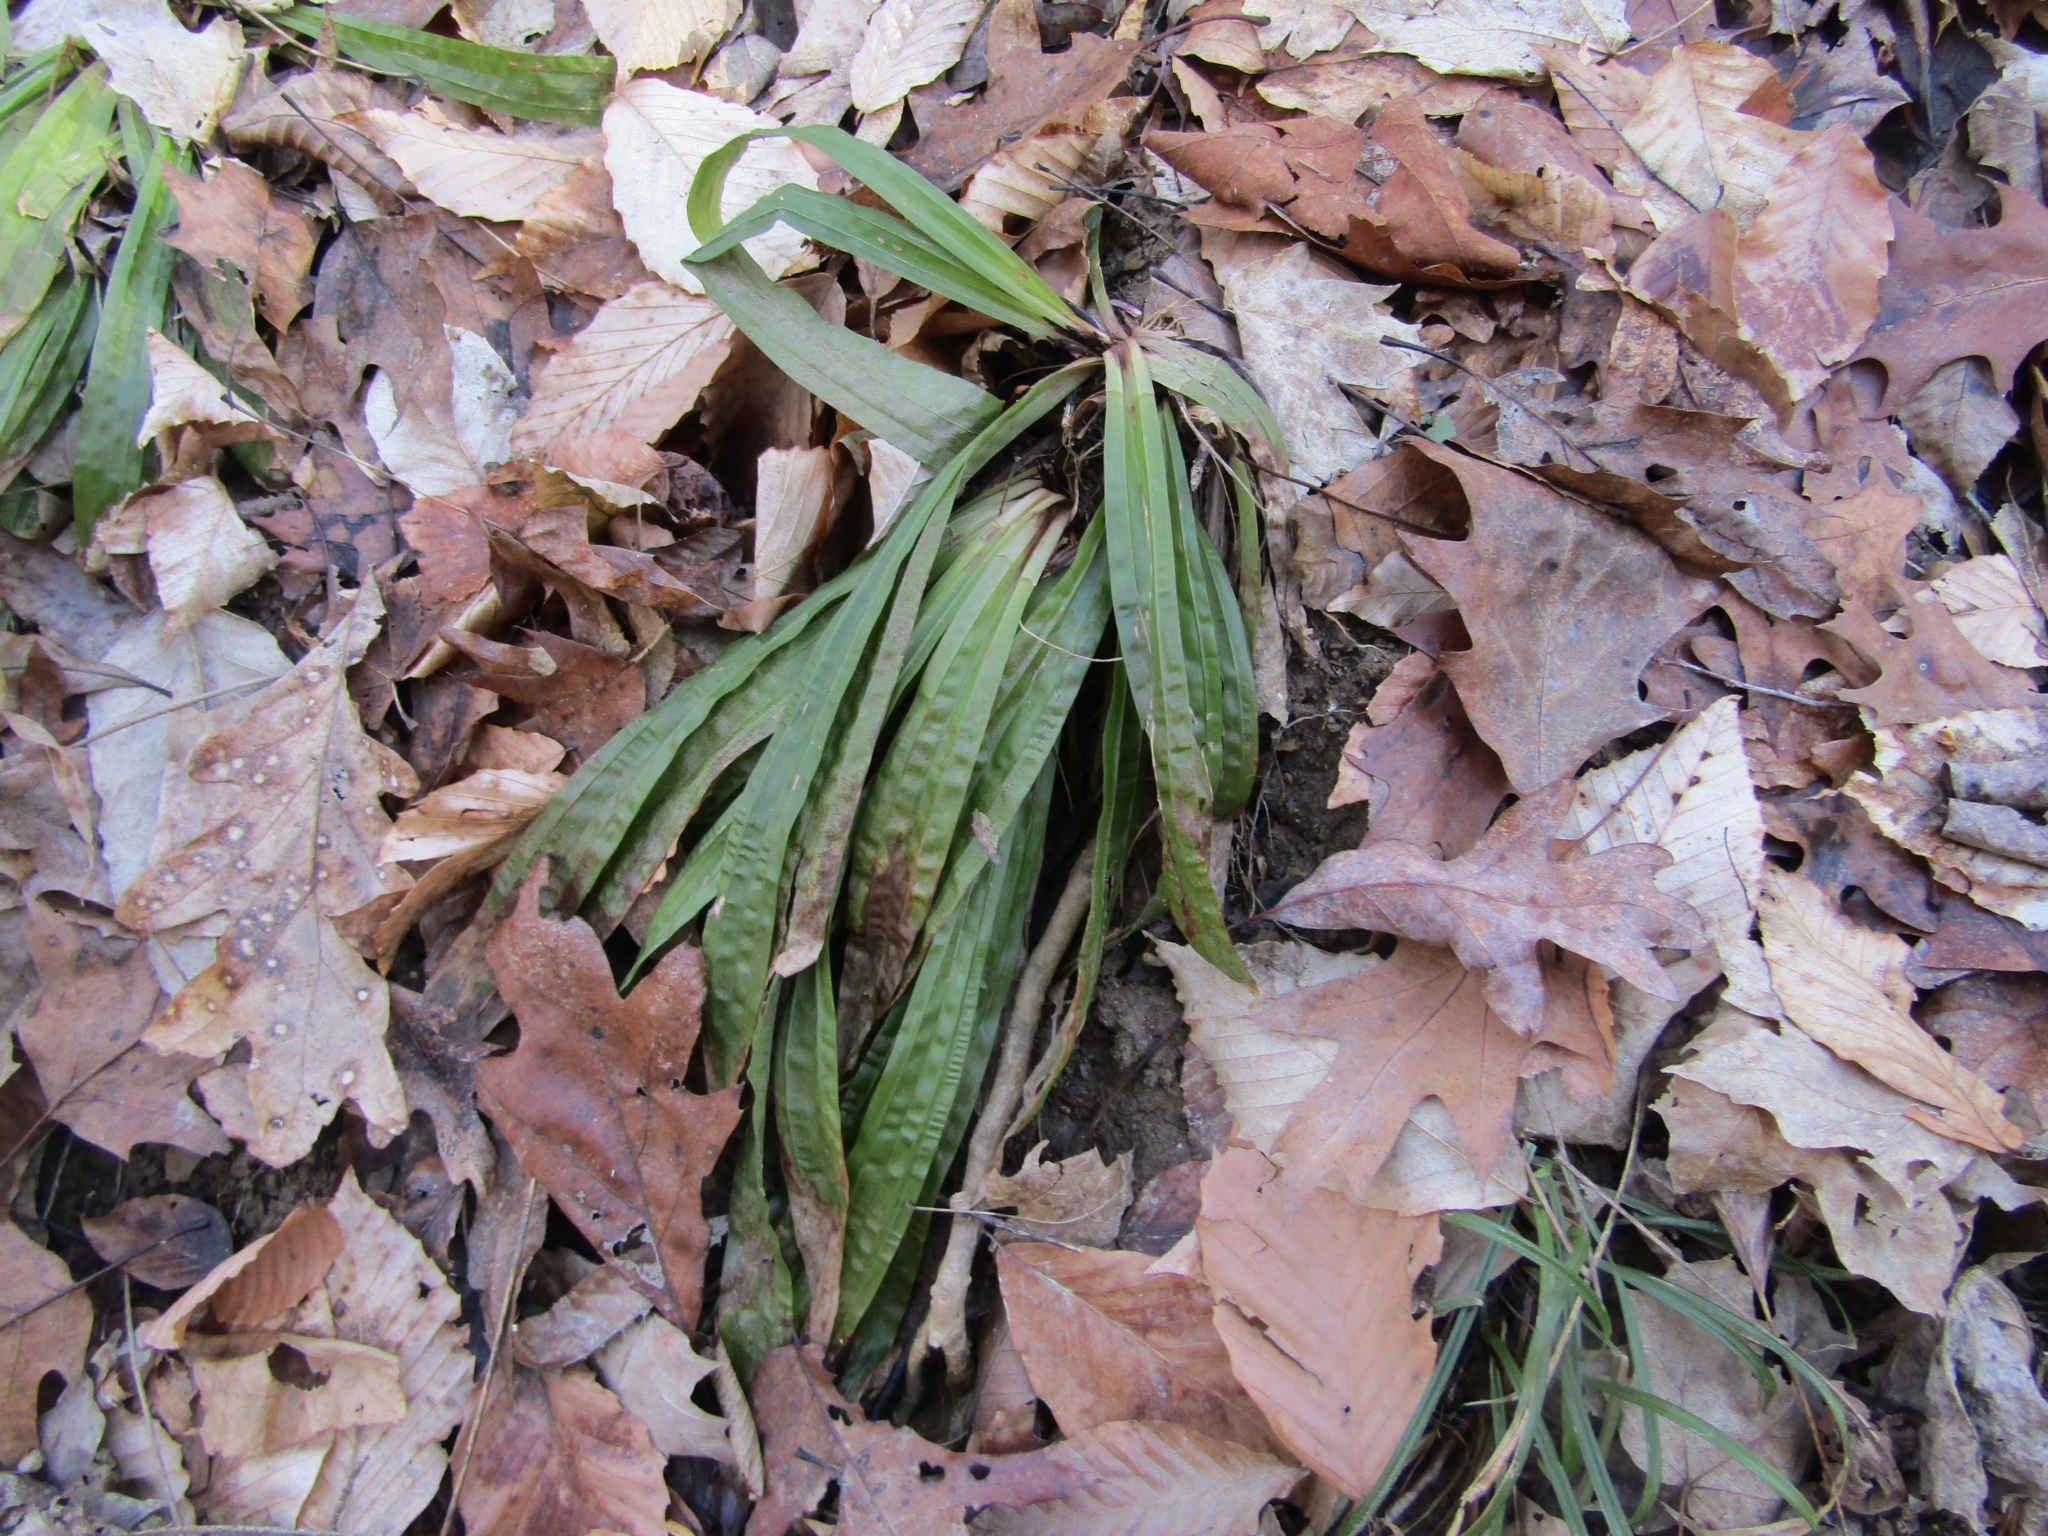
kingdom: Plantae
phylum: Tracheophyta
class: Liliopsida
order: Poales
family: Cyperaceae
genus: Carex
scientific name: Carex plantaginea
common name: Plantain-leaved sedge
